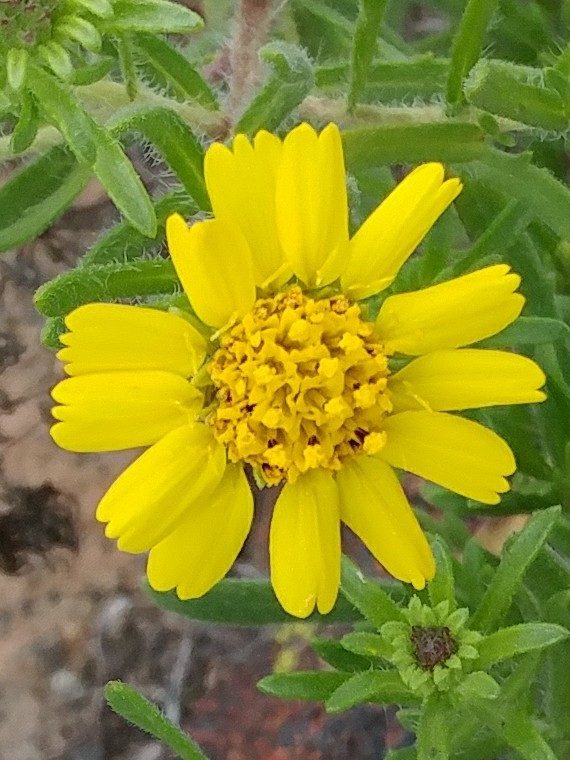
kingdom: Plantae
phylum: Tracheophyta
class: Magnoliopsida
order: Asterales
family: Asteraceae
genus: Deinandra
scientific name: Deinandra clementina
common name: Island tarplant
